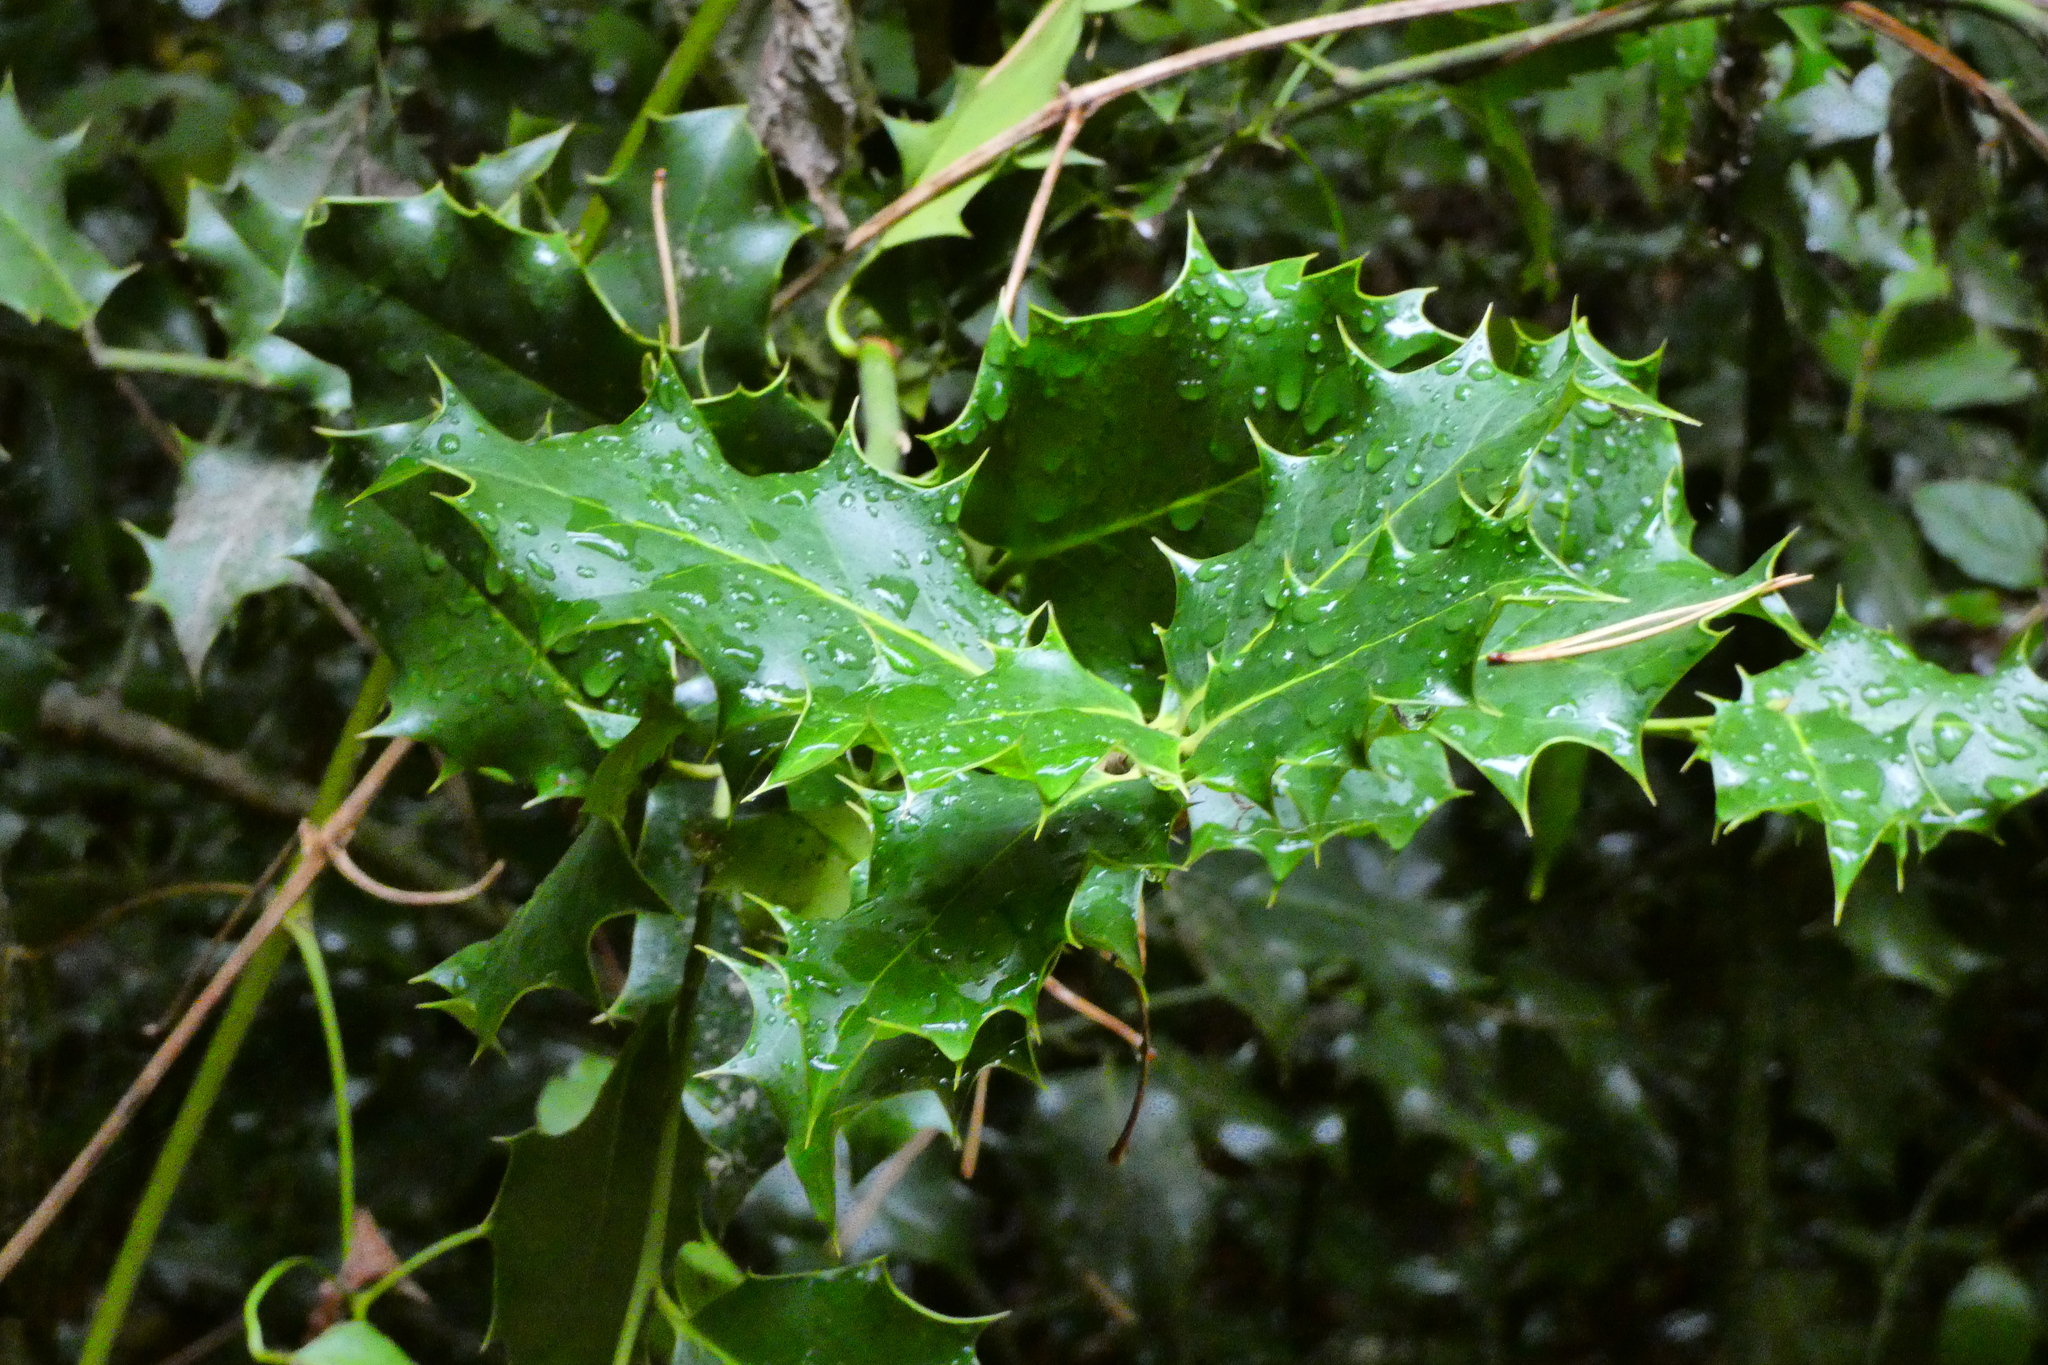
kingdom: Plantae
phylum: Tracheophyta
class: Magnoliopsida
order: Aquifoliales
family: Aquifoliaceae
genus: Ilex
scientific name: Ilex aquifolium
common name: English holly
